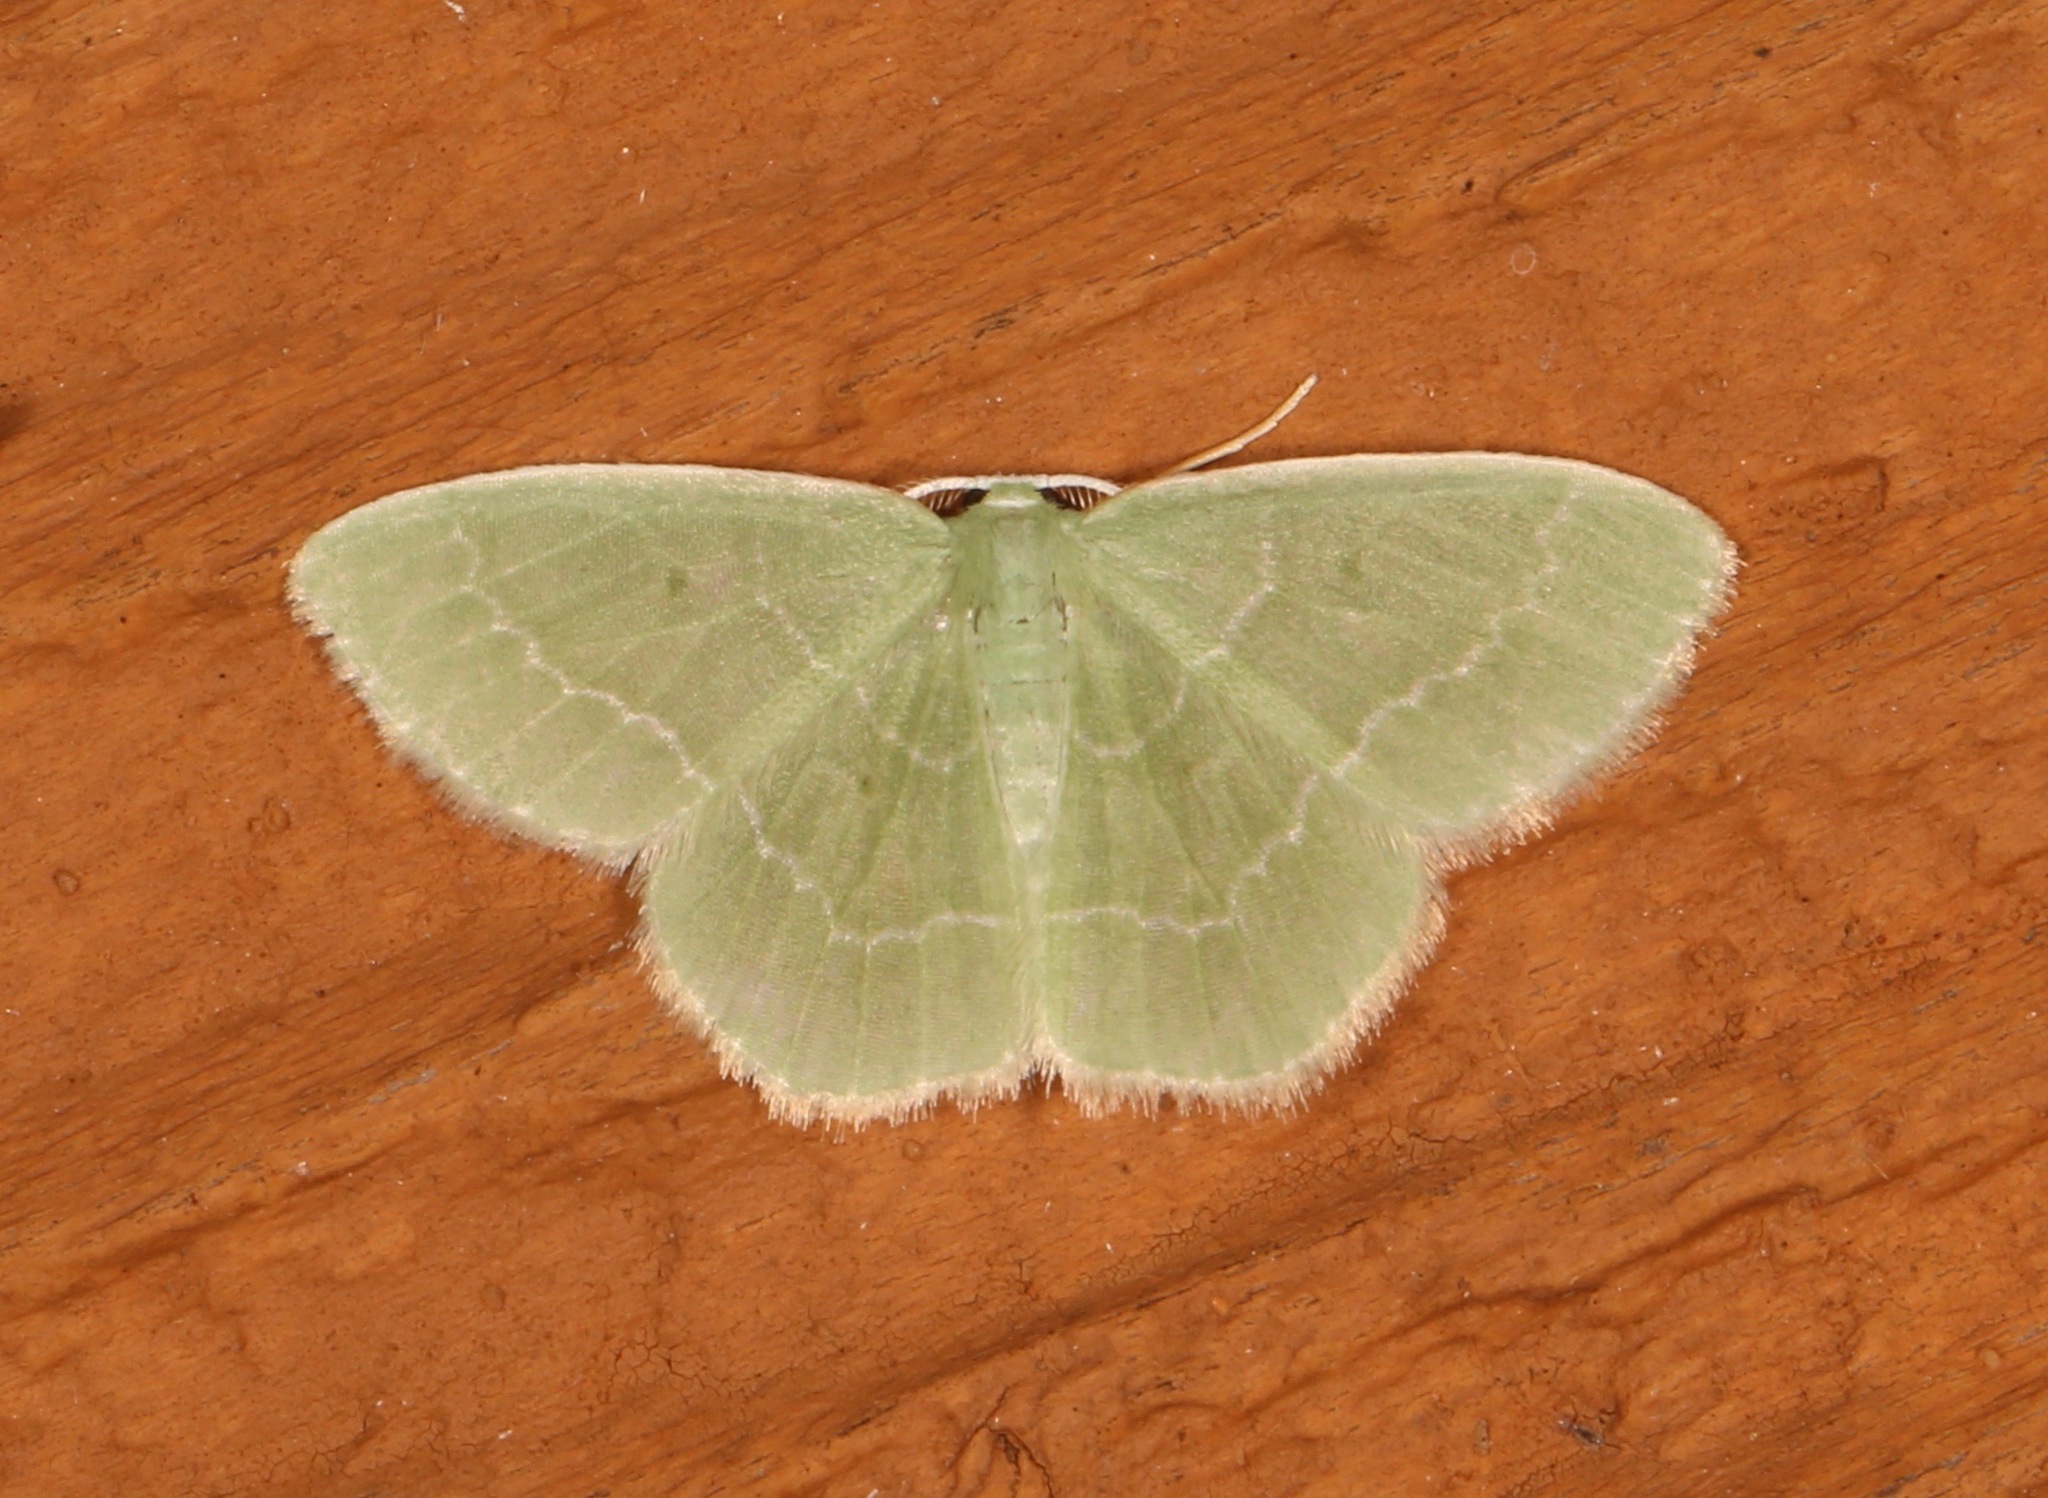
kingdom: Animalia
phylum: Arthropoda
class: Insecta
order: Lepidoptera
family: Geometridae
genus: Nemoria
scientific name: Nemoria elfa
